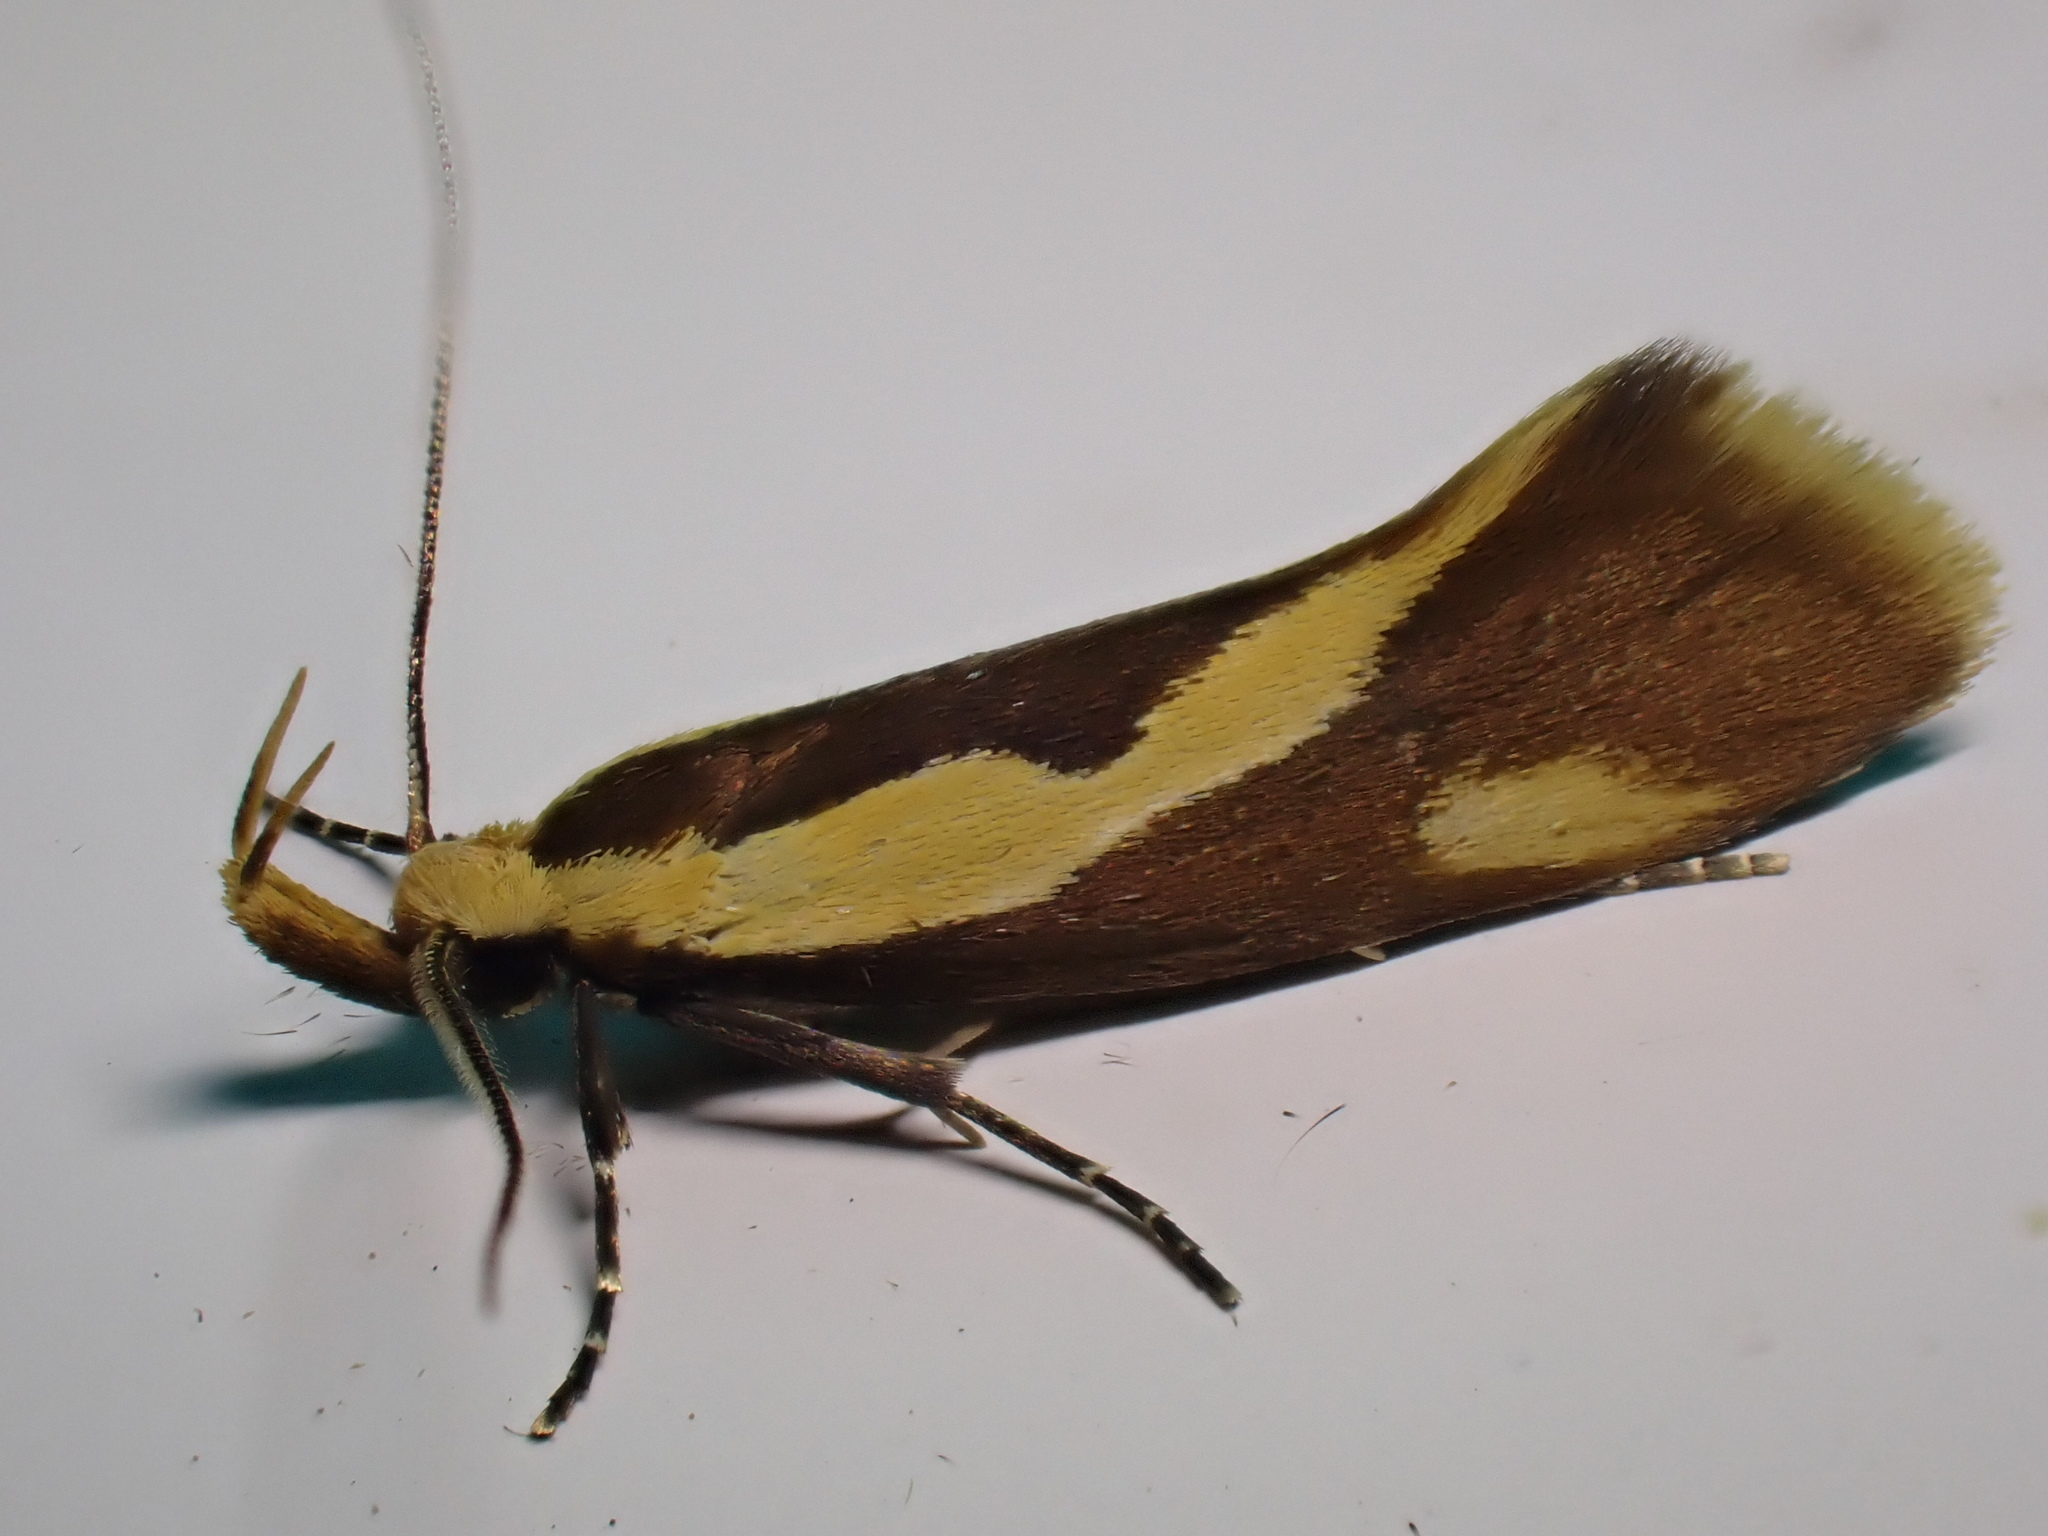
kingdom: Animalia
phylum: Arthropoda
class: Insecta
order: Lepidoptera
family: Oecophoridae
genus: Harpella
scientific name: Harpella forficella
